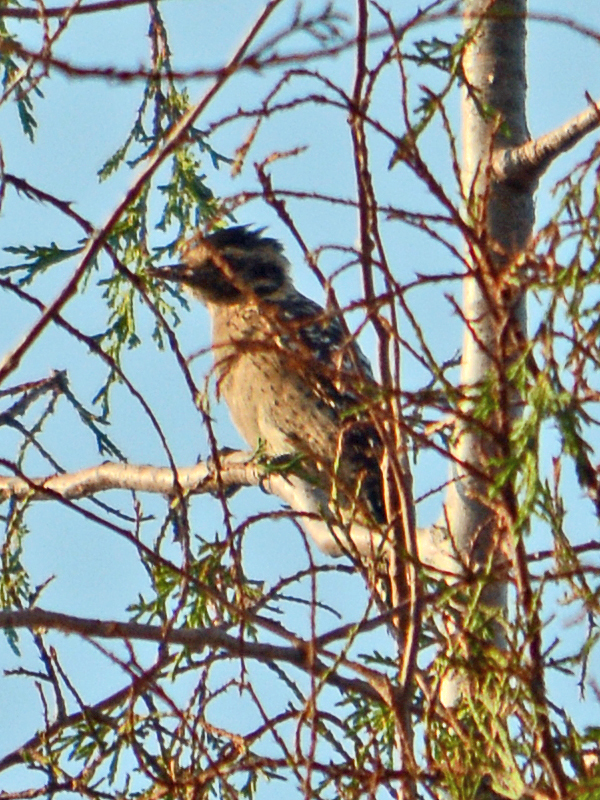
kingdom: Animalia
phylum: Chordata
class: Aves
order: Piciformes
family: Picidae
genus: Dryobates
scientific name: Dryobates scalaris
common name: Ladder-backed woodpecker
